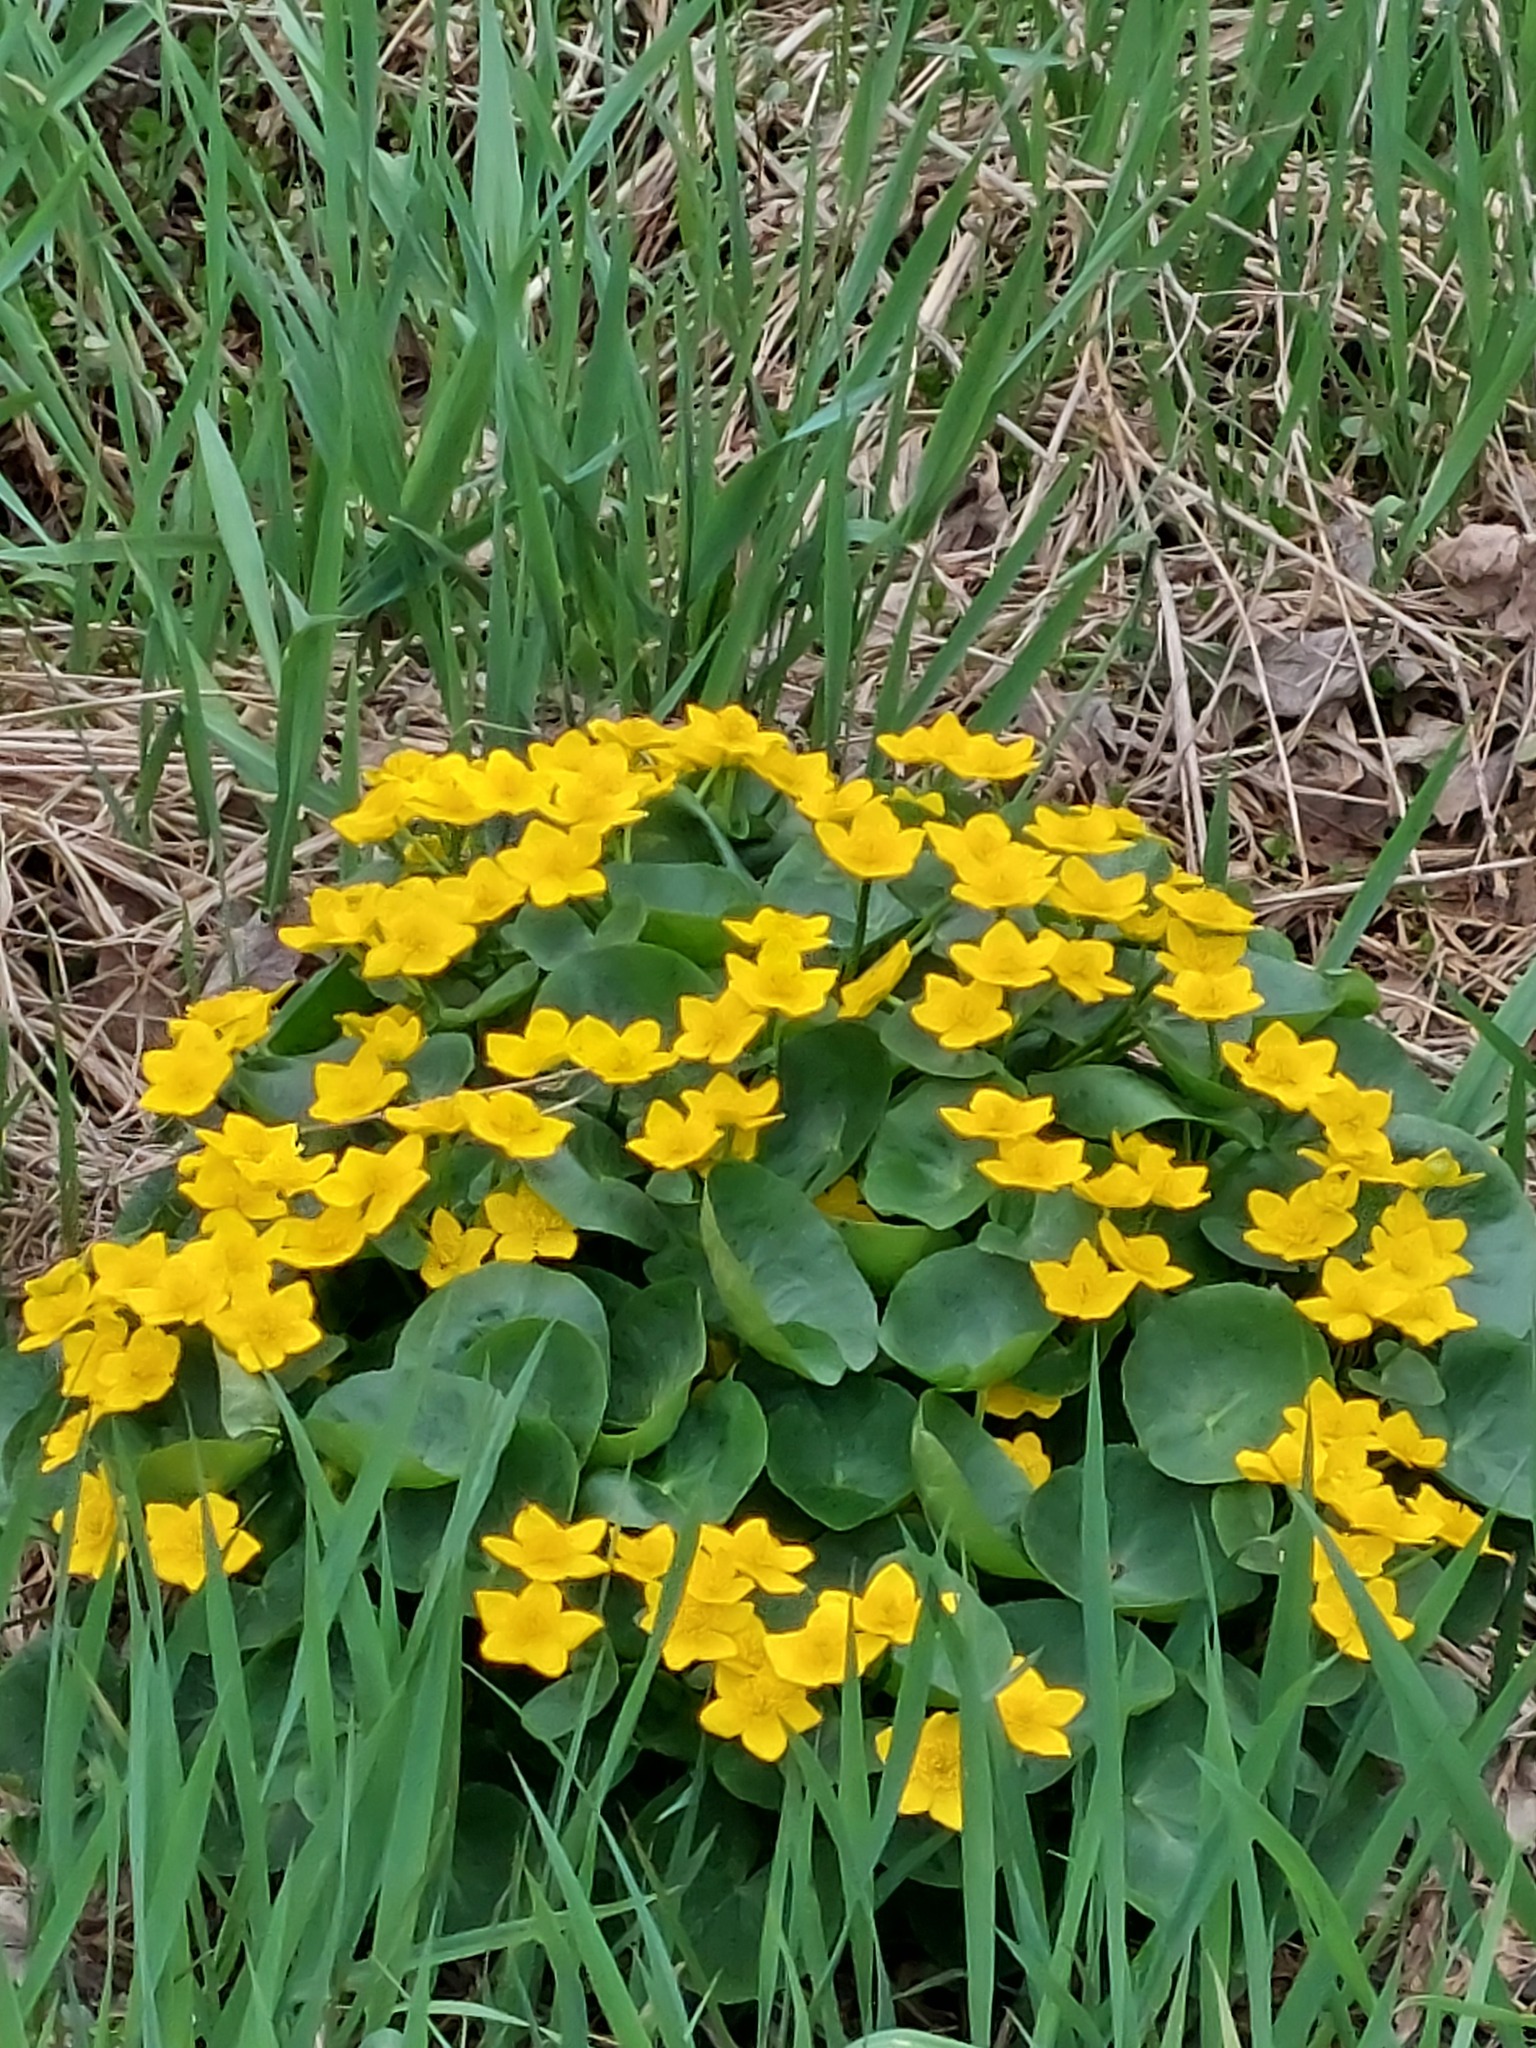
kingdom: Plantae
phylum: Tracheophyta
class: Magnoliopsida
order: Ranunculales
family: Ranunculaceae
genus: Caltha
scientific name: Caltha palustris
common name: Marsh marigold
